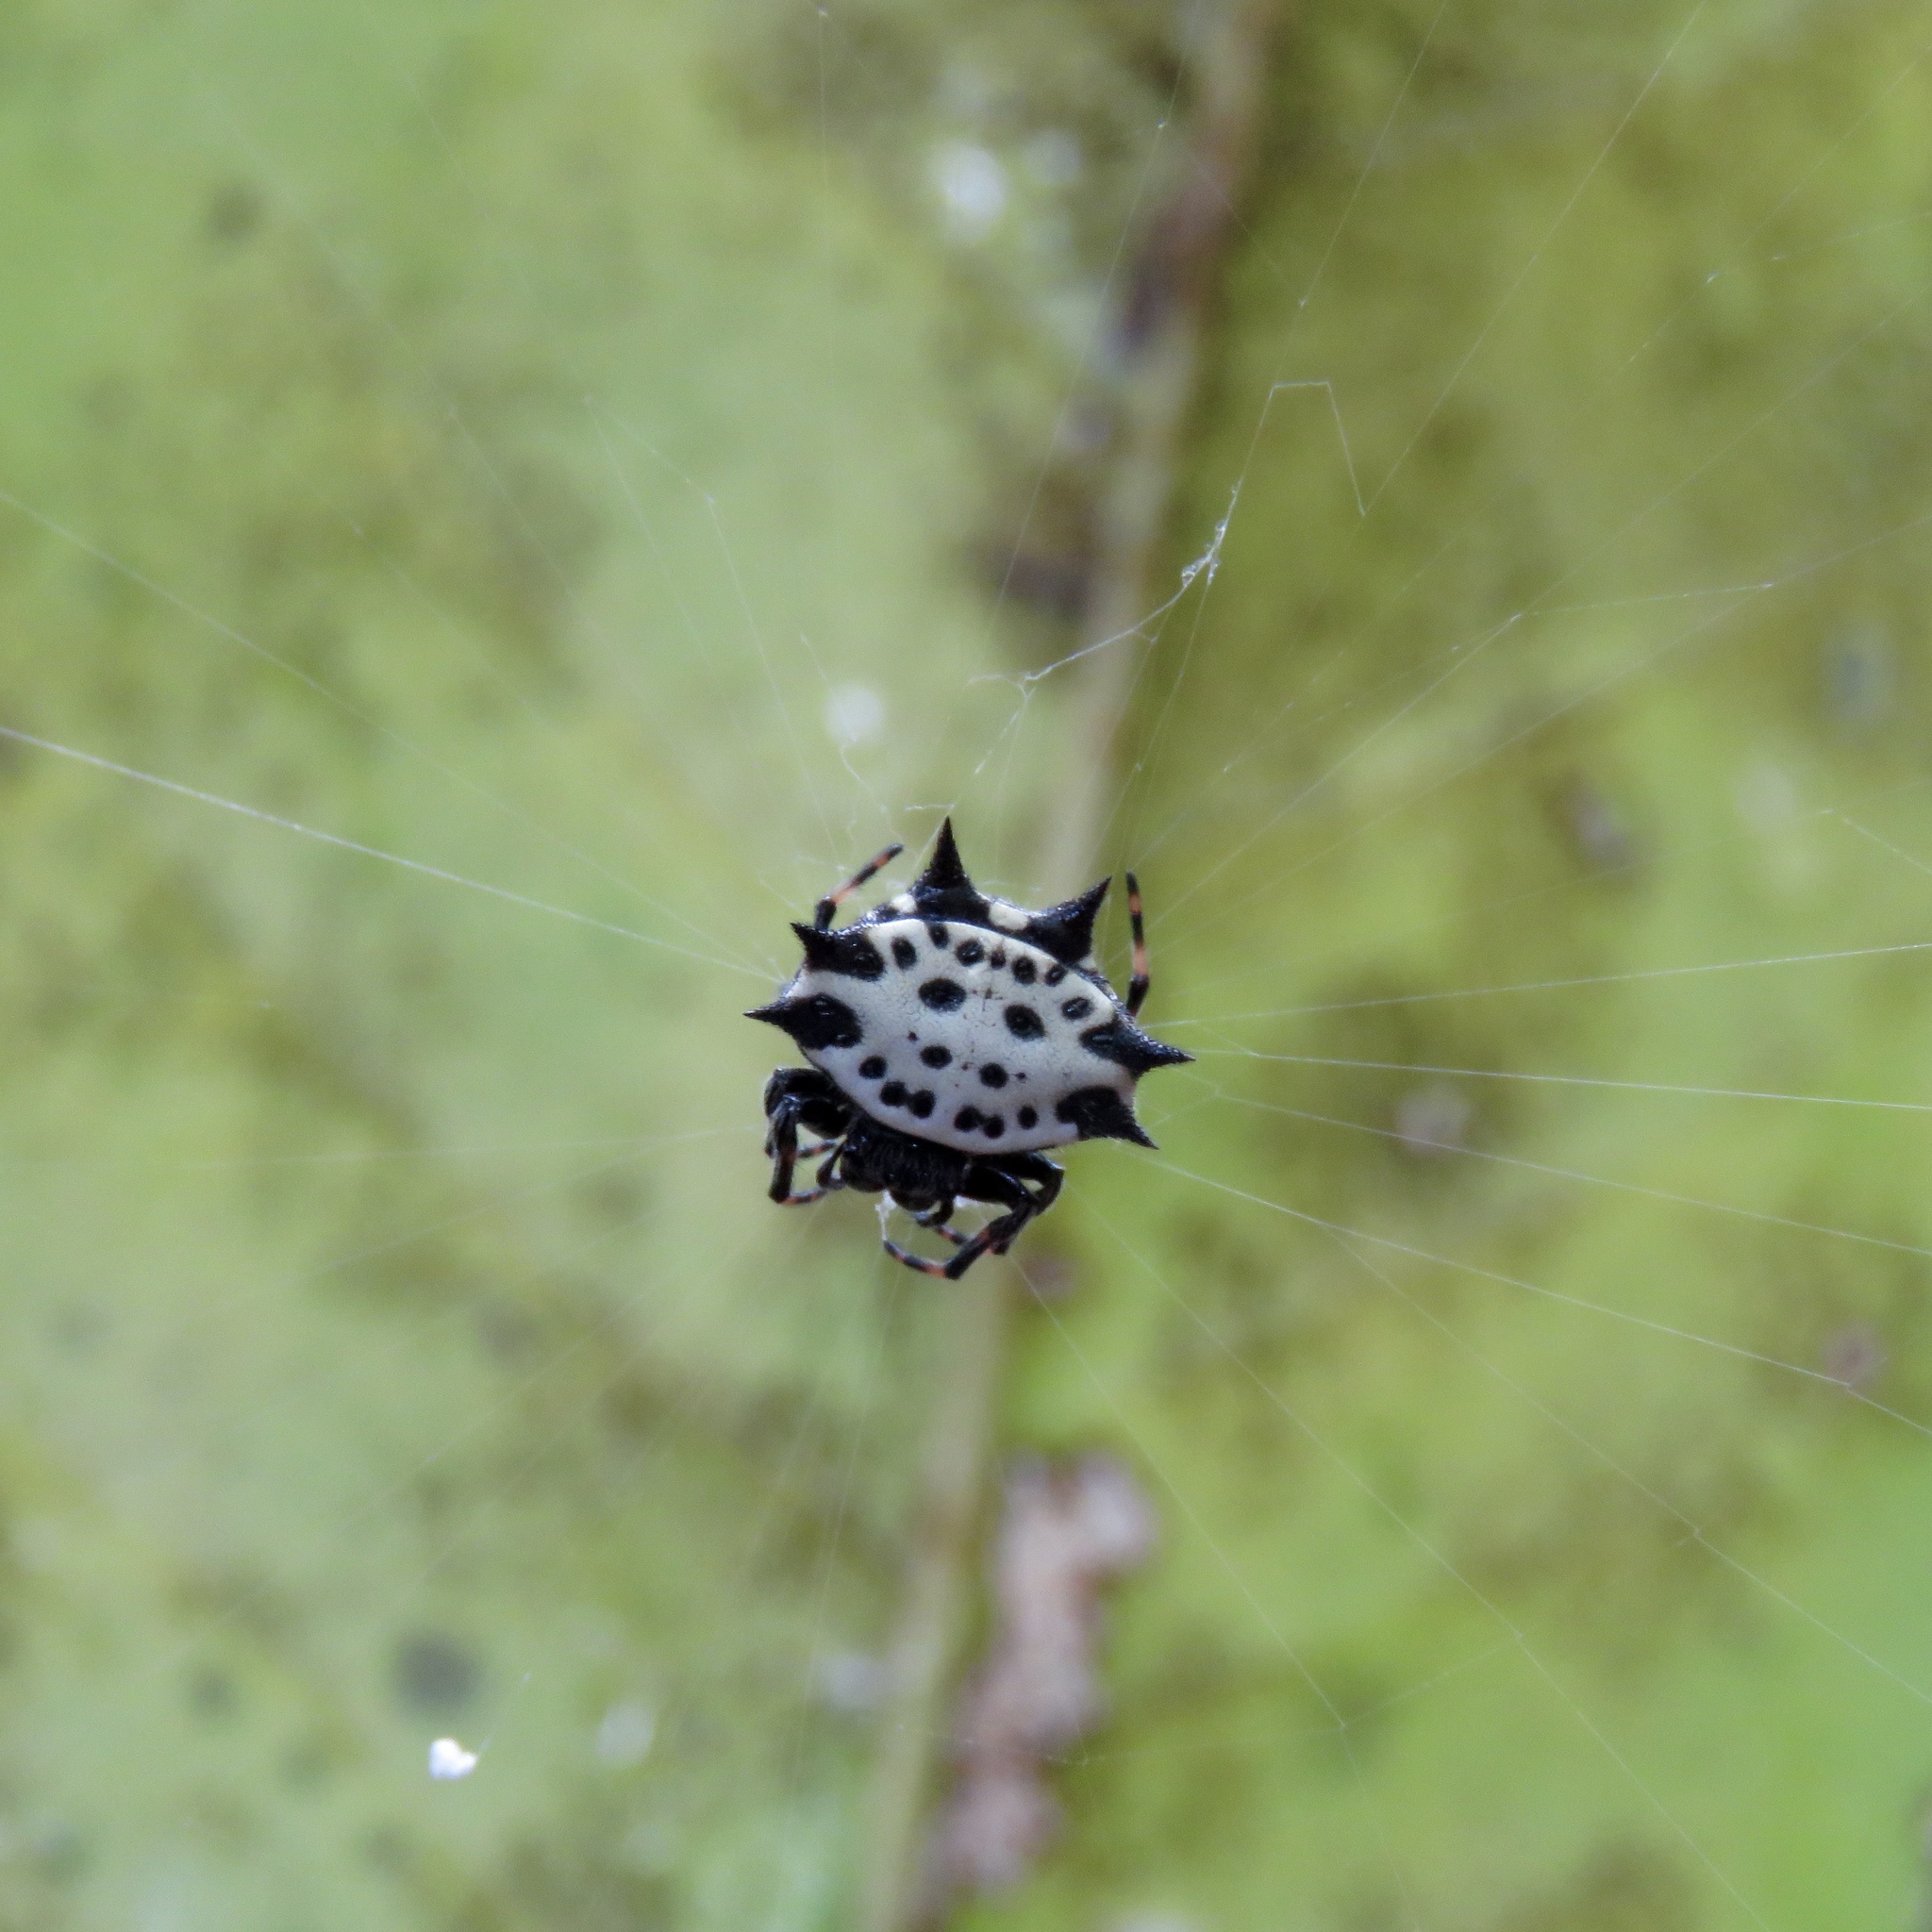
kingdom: Animalia
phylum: Arthropoda
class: Arachnida
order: Araneae
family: Araneidae
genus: Gasteracantha
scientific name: Gasteracantha cancriformis
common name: Orb weavers
